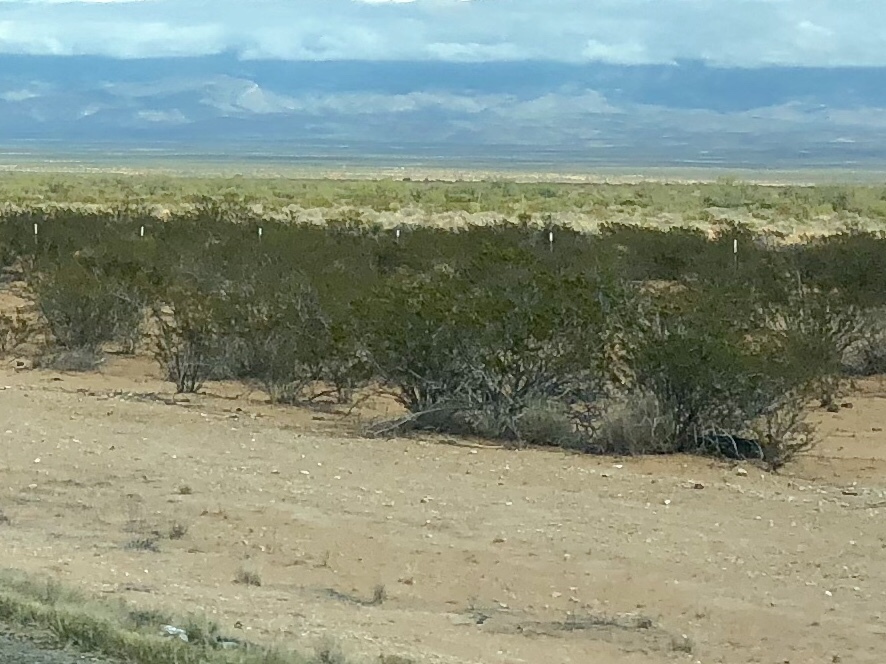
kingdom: Plantae
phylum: Tracheophyta
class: Magnoliopsida
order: Zygophyllales
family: Zygophyllaceae
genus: Larrea
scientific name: Larrea tridentata
